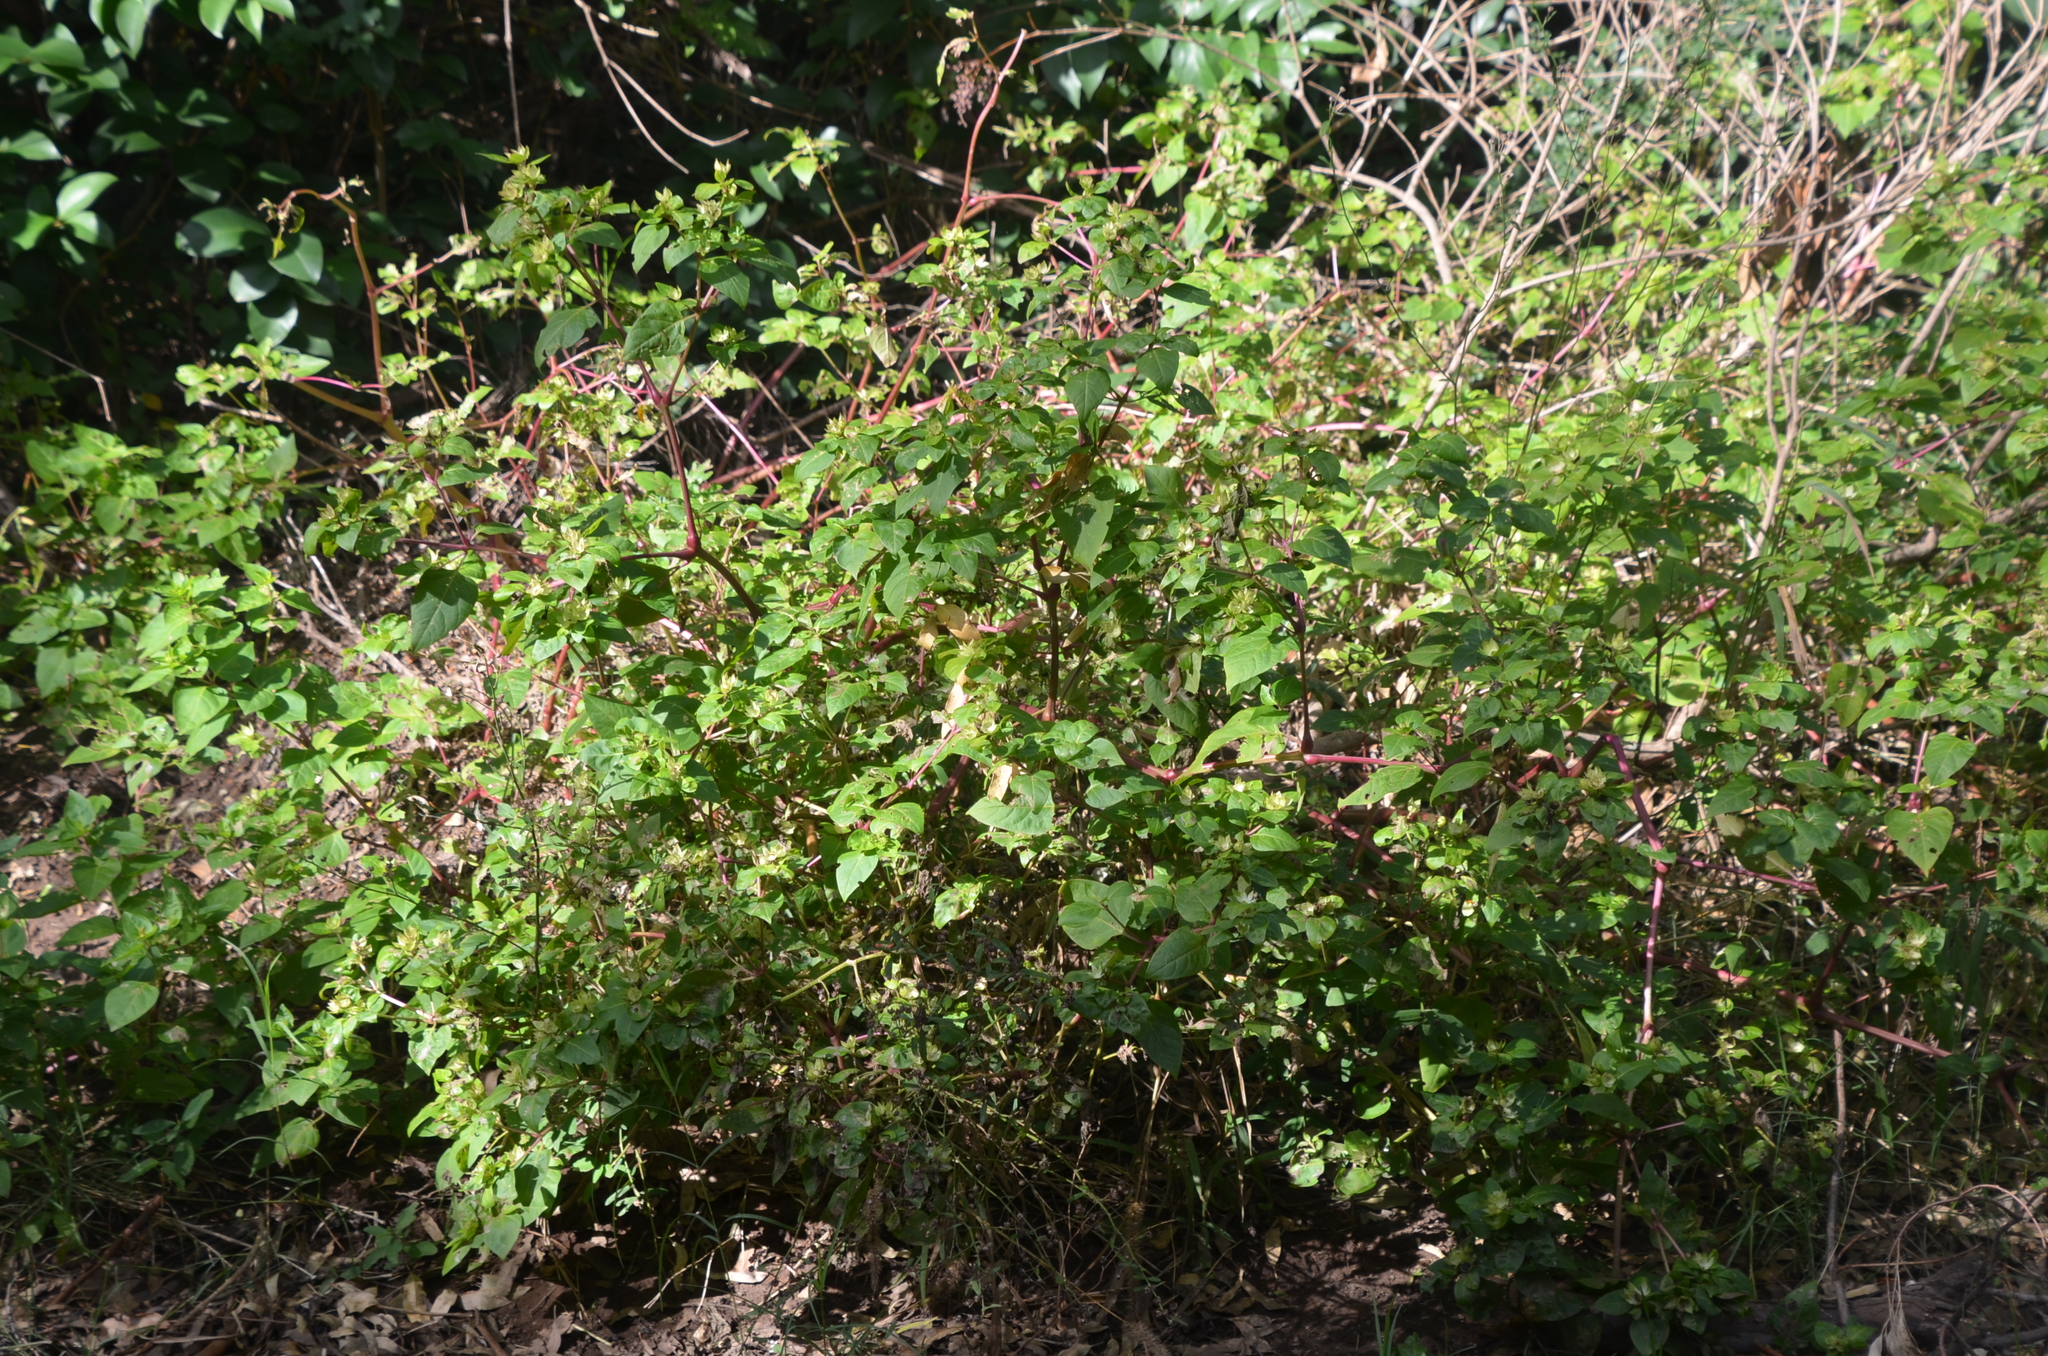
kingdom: Plantae
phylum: Tracheophyta
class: Magnoliopsida
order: Caryophyllales
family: Nyctaginaceae
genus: Mirabilis
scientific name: Mirabilis jalapa
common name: Marvel-of-peru
